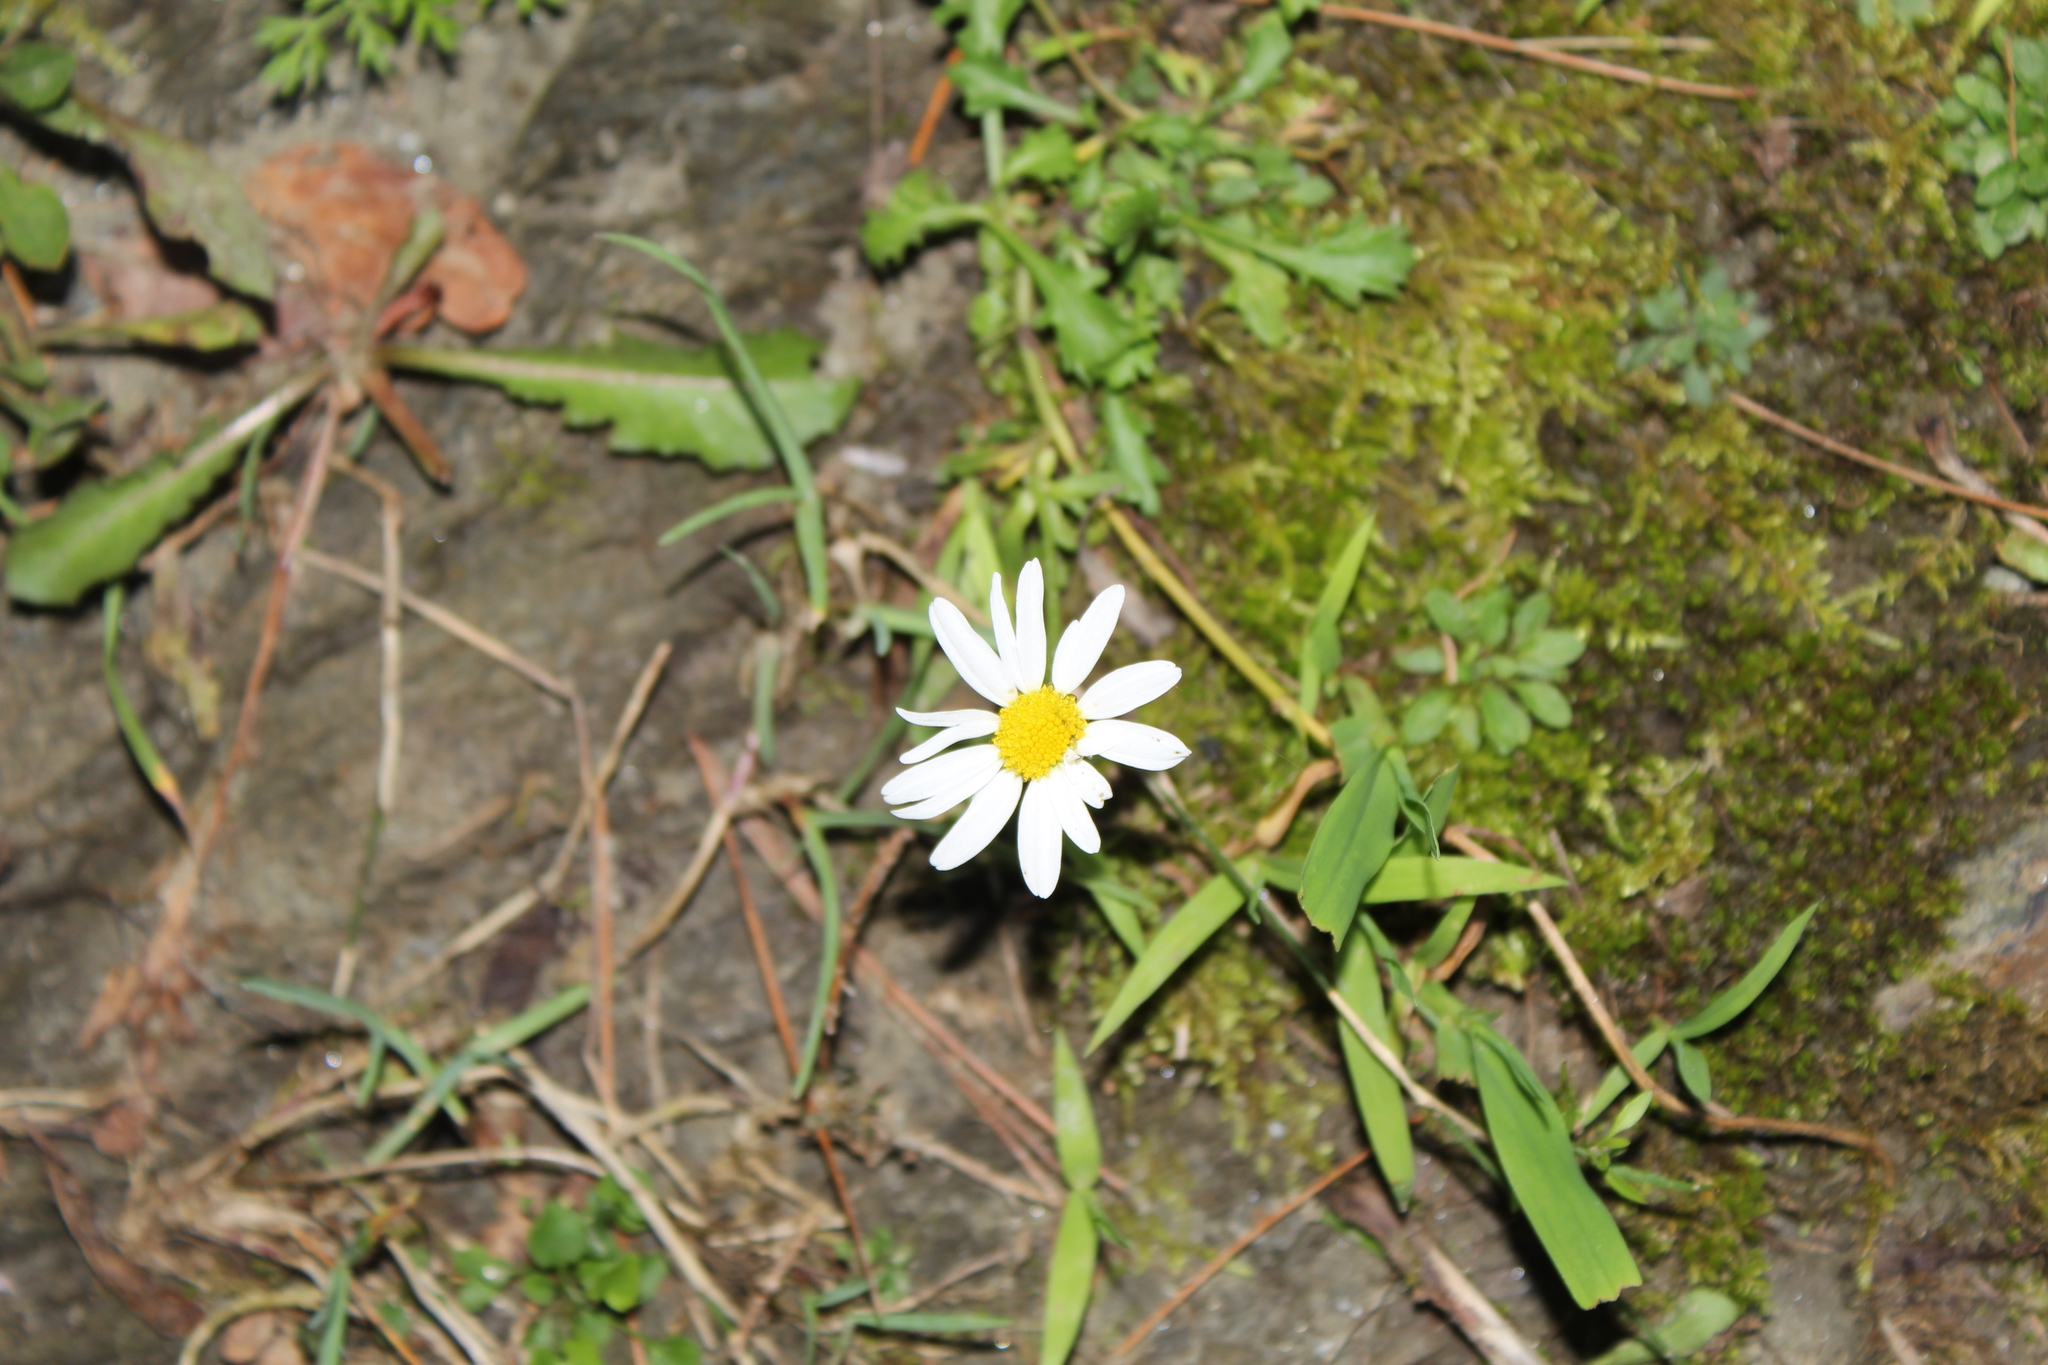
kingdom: Plantae
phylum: Tracheophyta
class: Magnoliopsida
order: Asterales
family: Asteraceae
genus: Leucanthemum
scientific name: Leucanthemum vulgare
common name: Oxeye daisy
